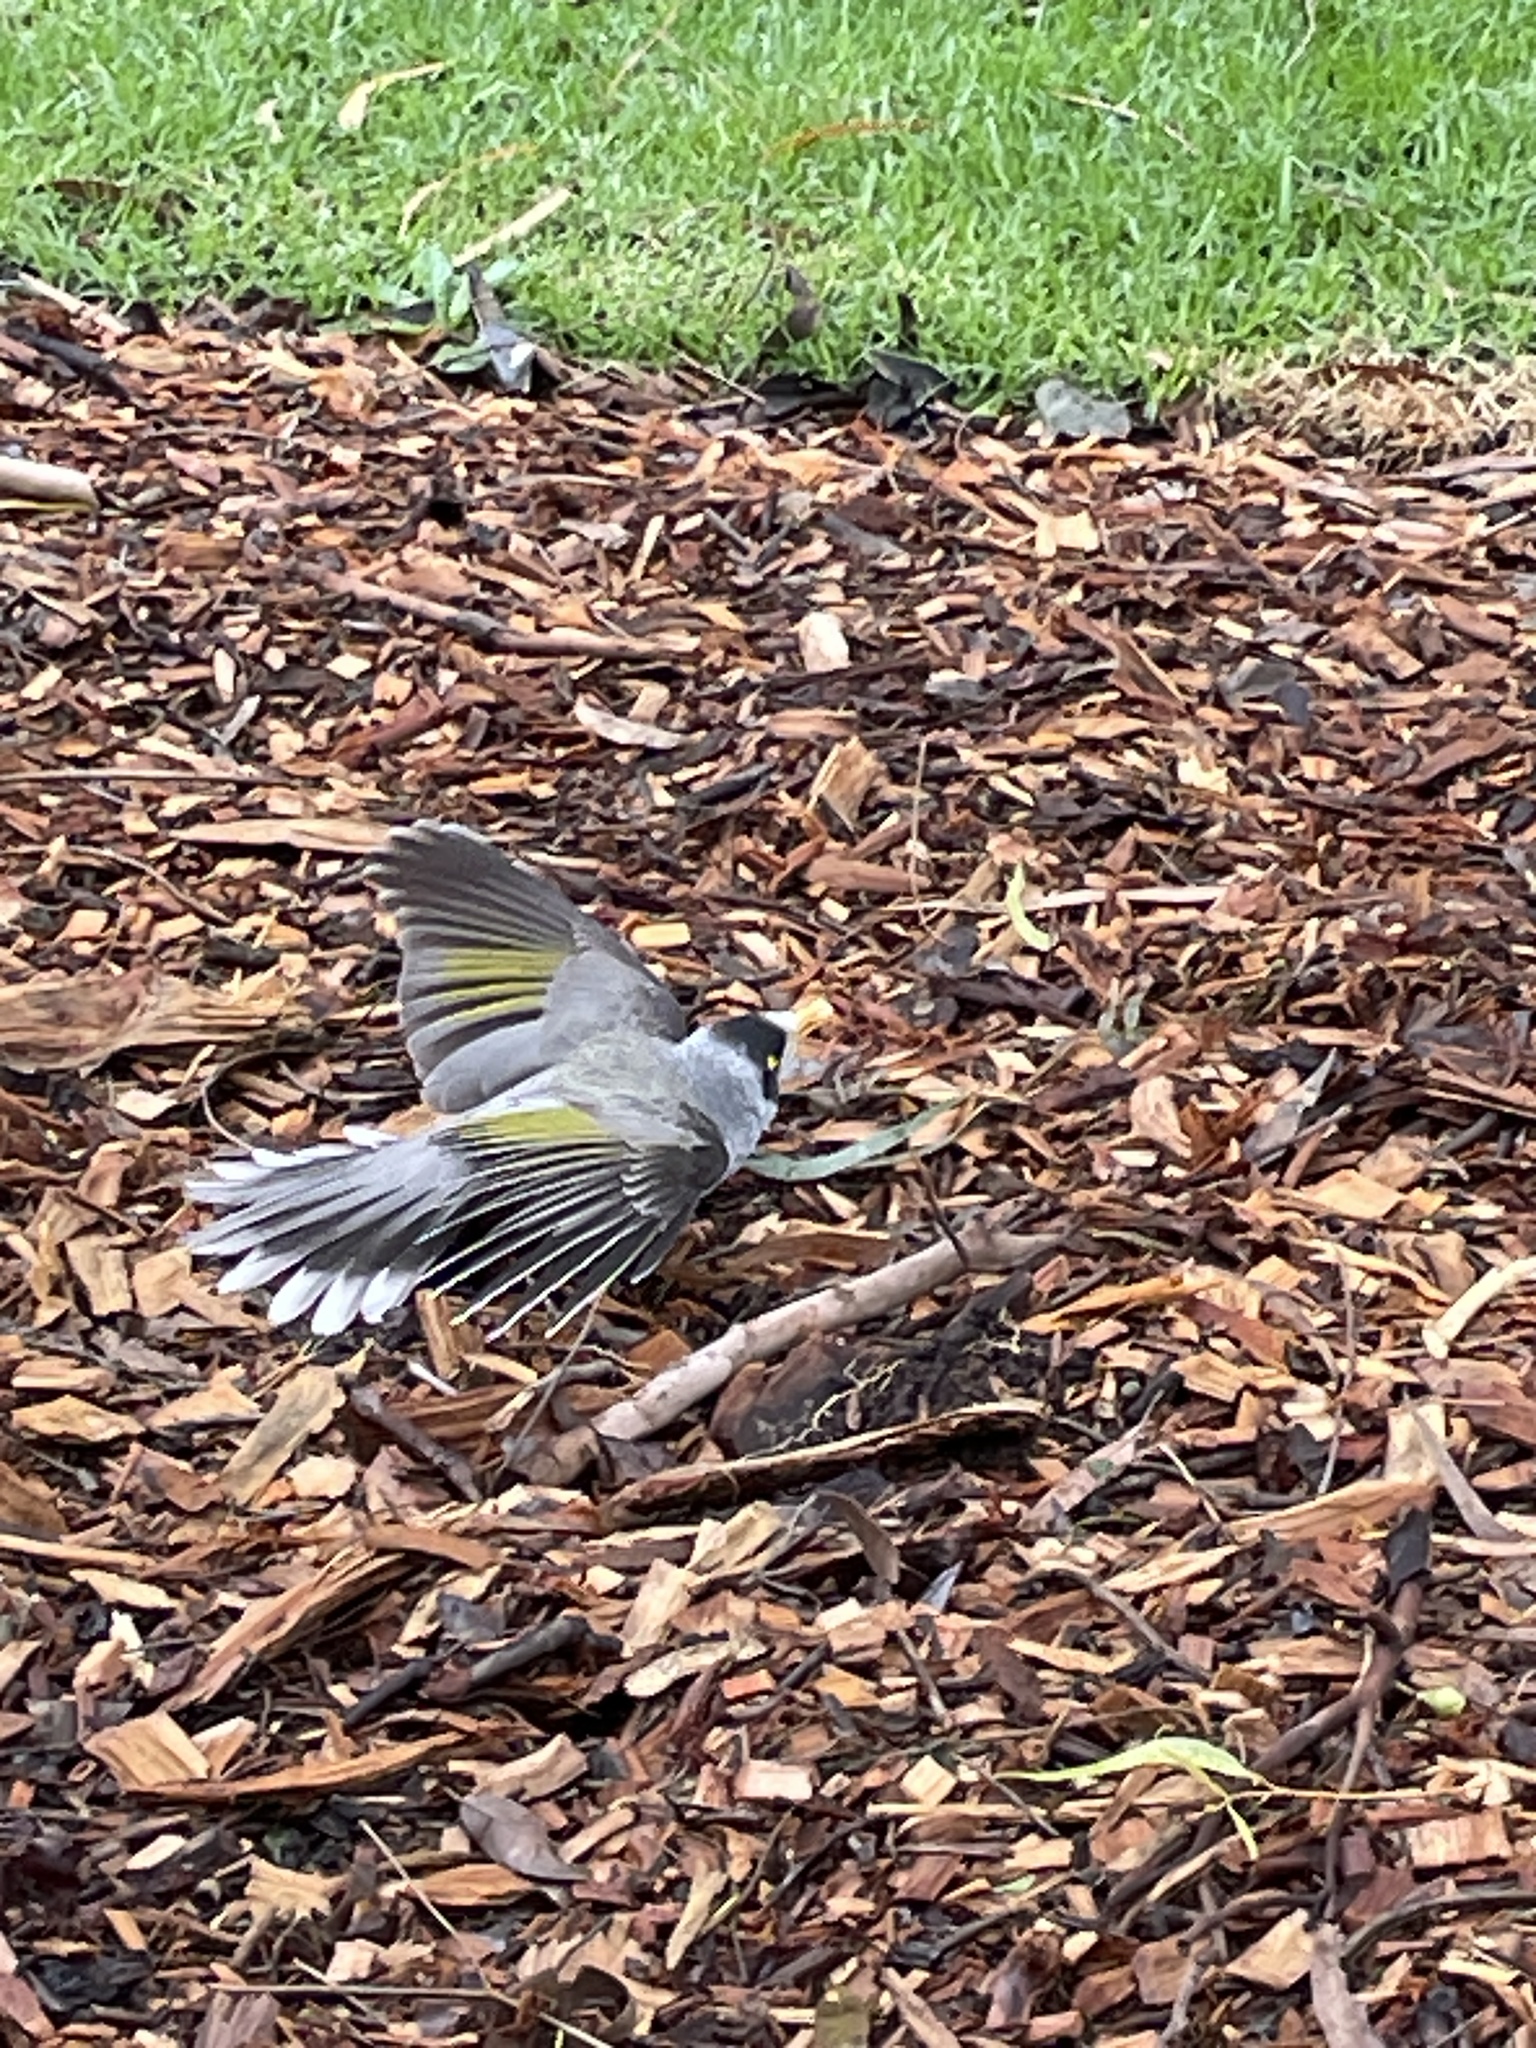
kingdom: Animalia
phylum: Chordata
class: Aves
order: Passeriformes
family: Meliphagidae
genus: Manorina
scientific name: Manorina melanocephala
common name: Noisy miner
